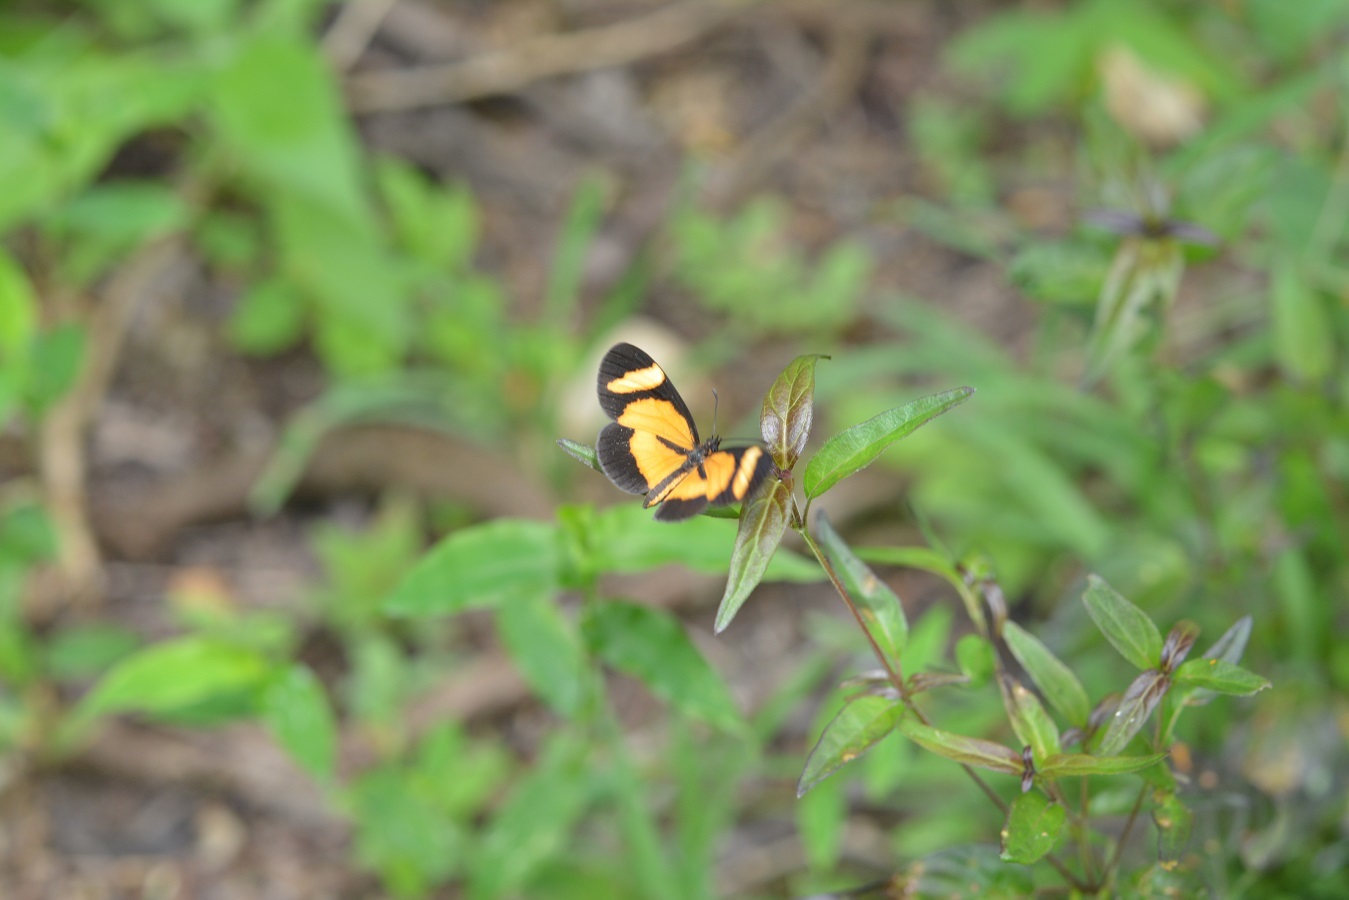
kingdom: Animalia
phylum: Arthropoda
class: Insecta
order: Lepidoptera
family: Nymphalidae
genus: Microtia
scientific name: Microtia elva
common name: Elf
